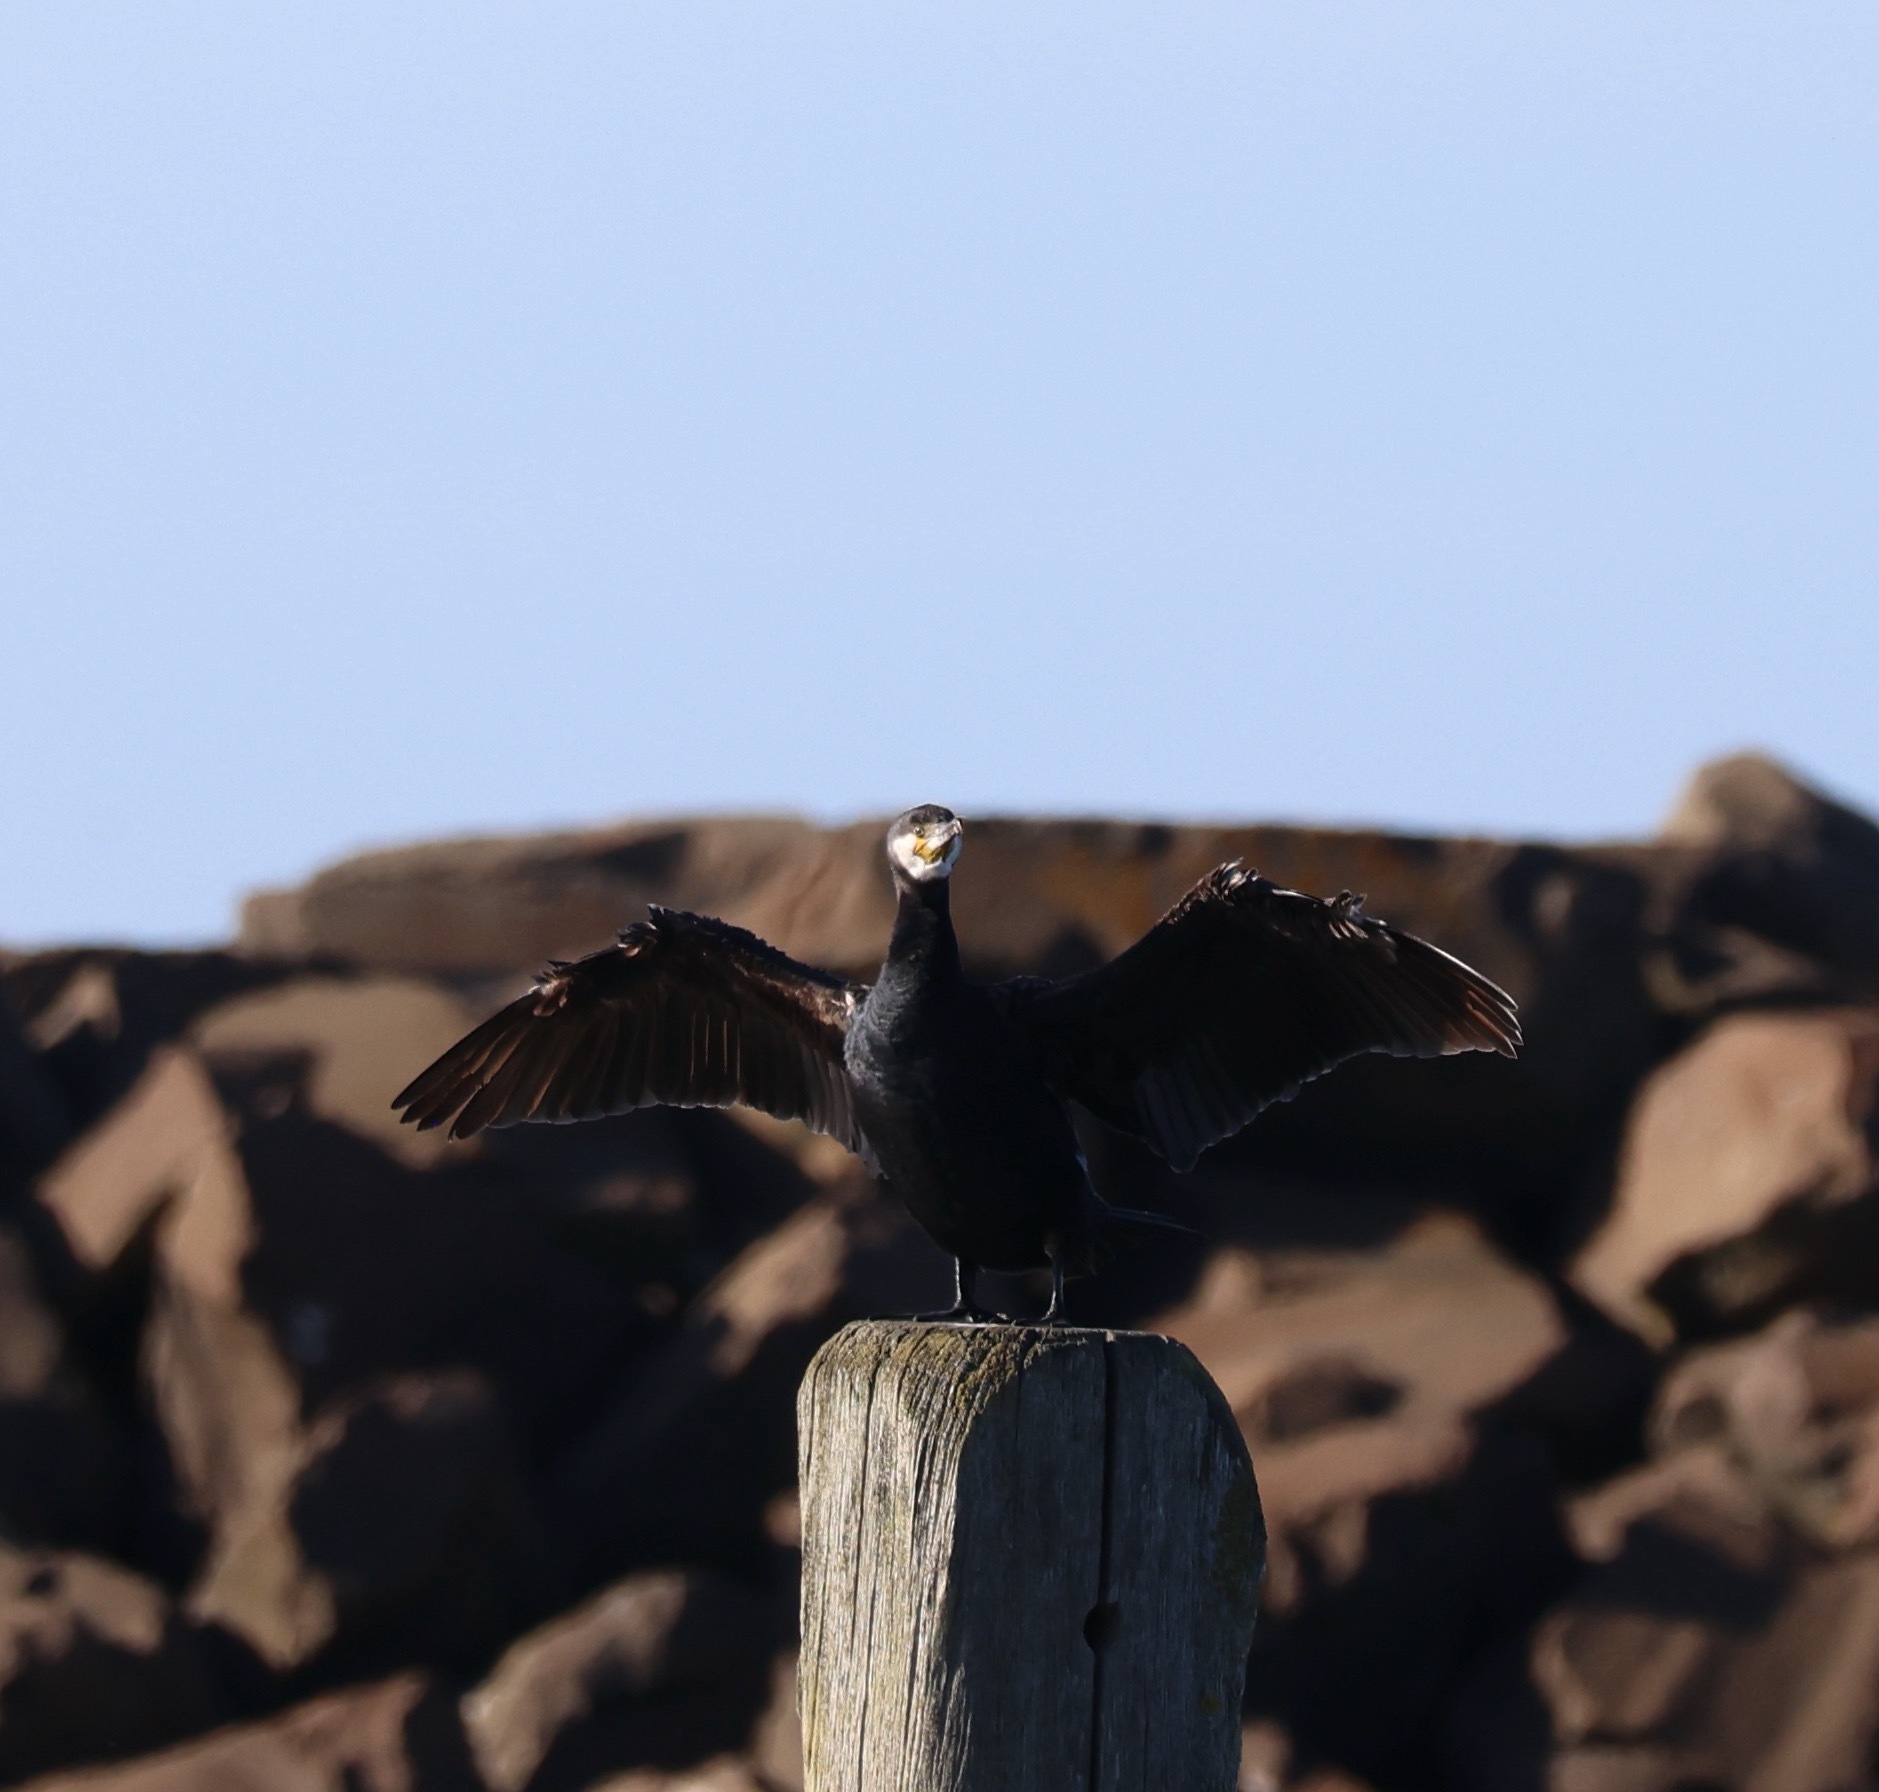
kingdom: Animalia
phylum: Chordata
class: Aves
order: Suliformes
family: Phalacrocoracidae
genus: Phalacrocorax
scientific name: Phalacrocorax carbo
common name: Great cormorant
